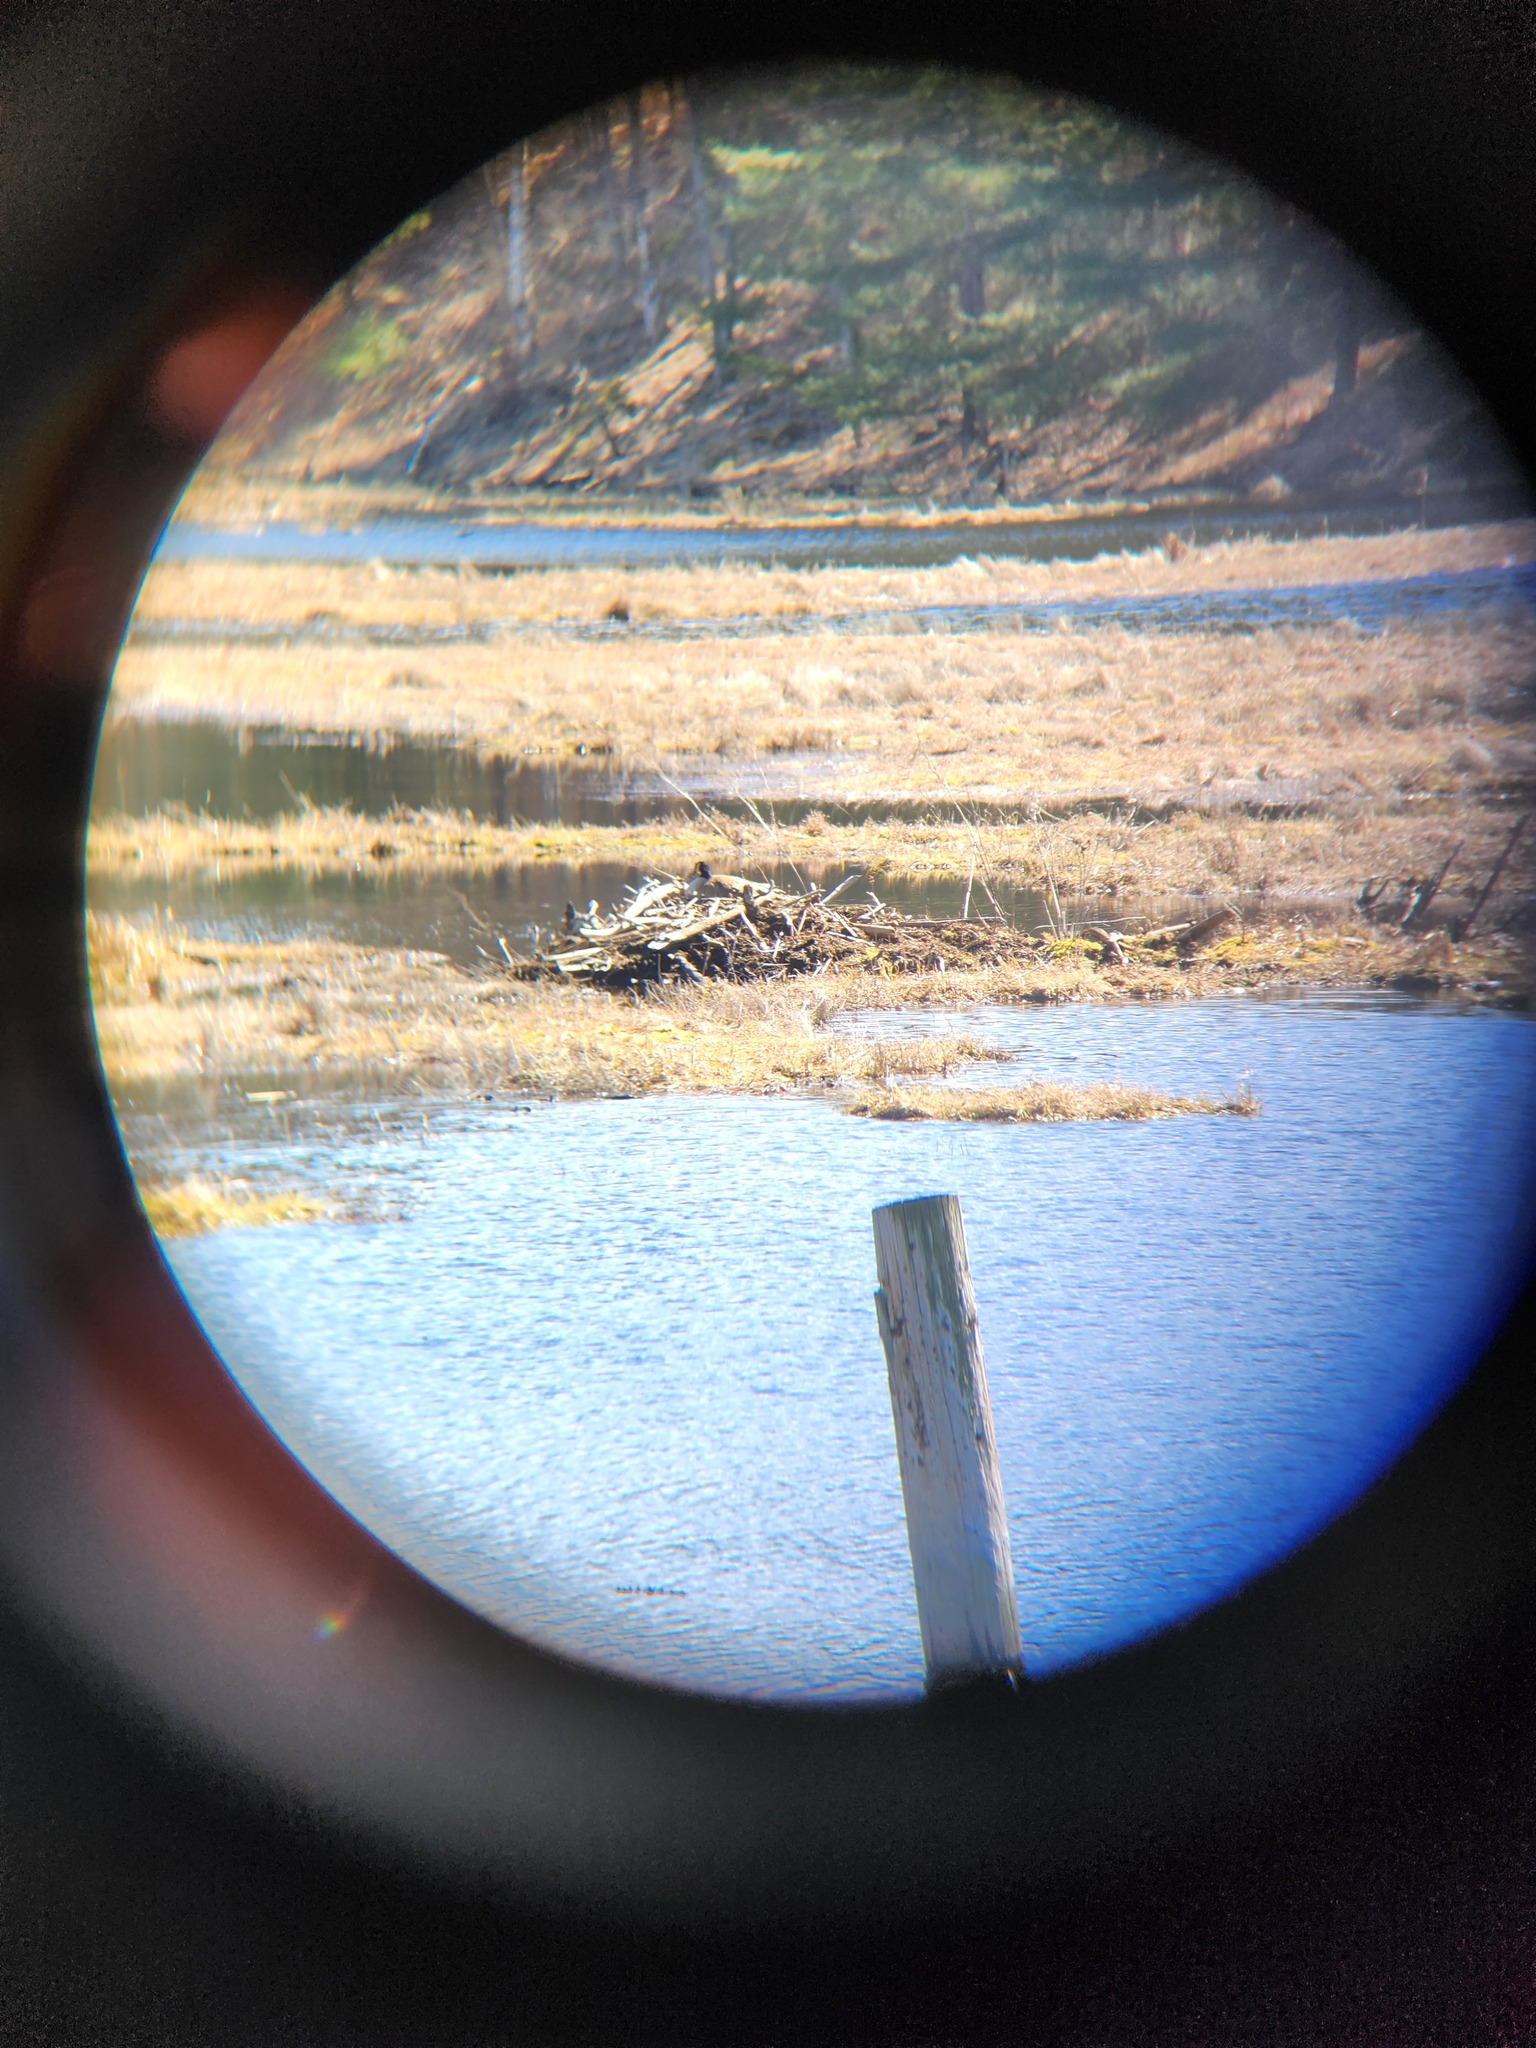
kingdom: Animalia
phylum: Chordata
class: Mammalia
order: Rodentia
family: Castoridae
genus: Castor
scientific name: Castor canadensis
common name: American beaver
